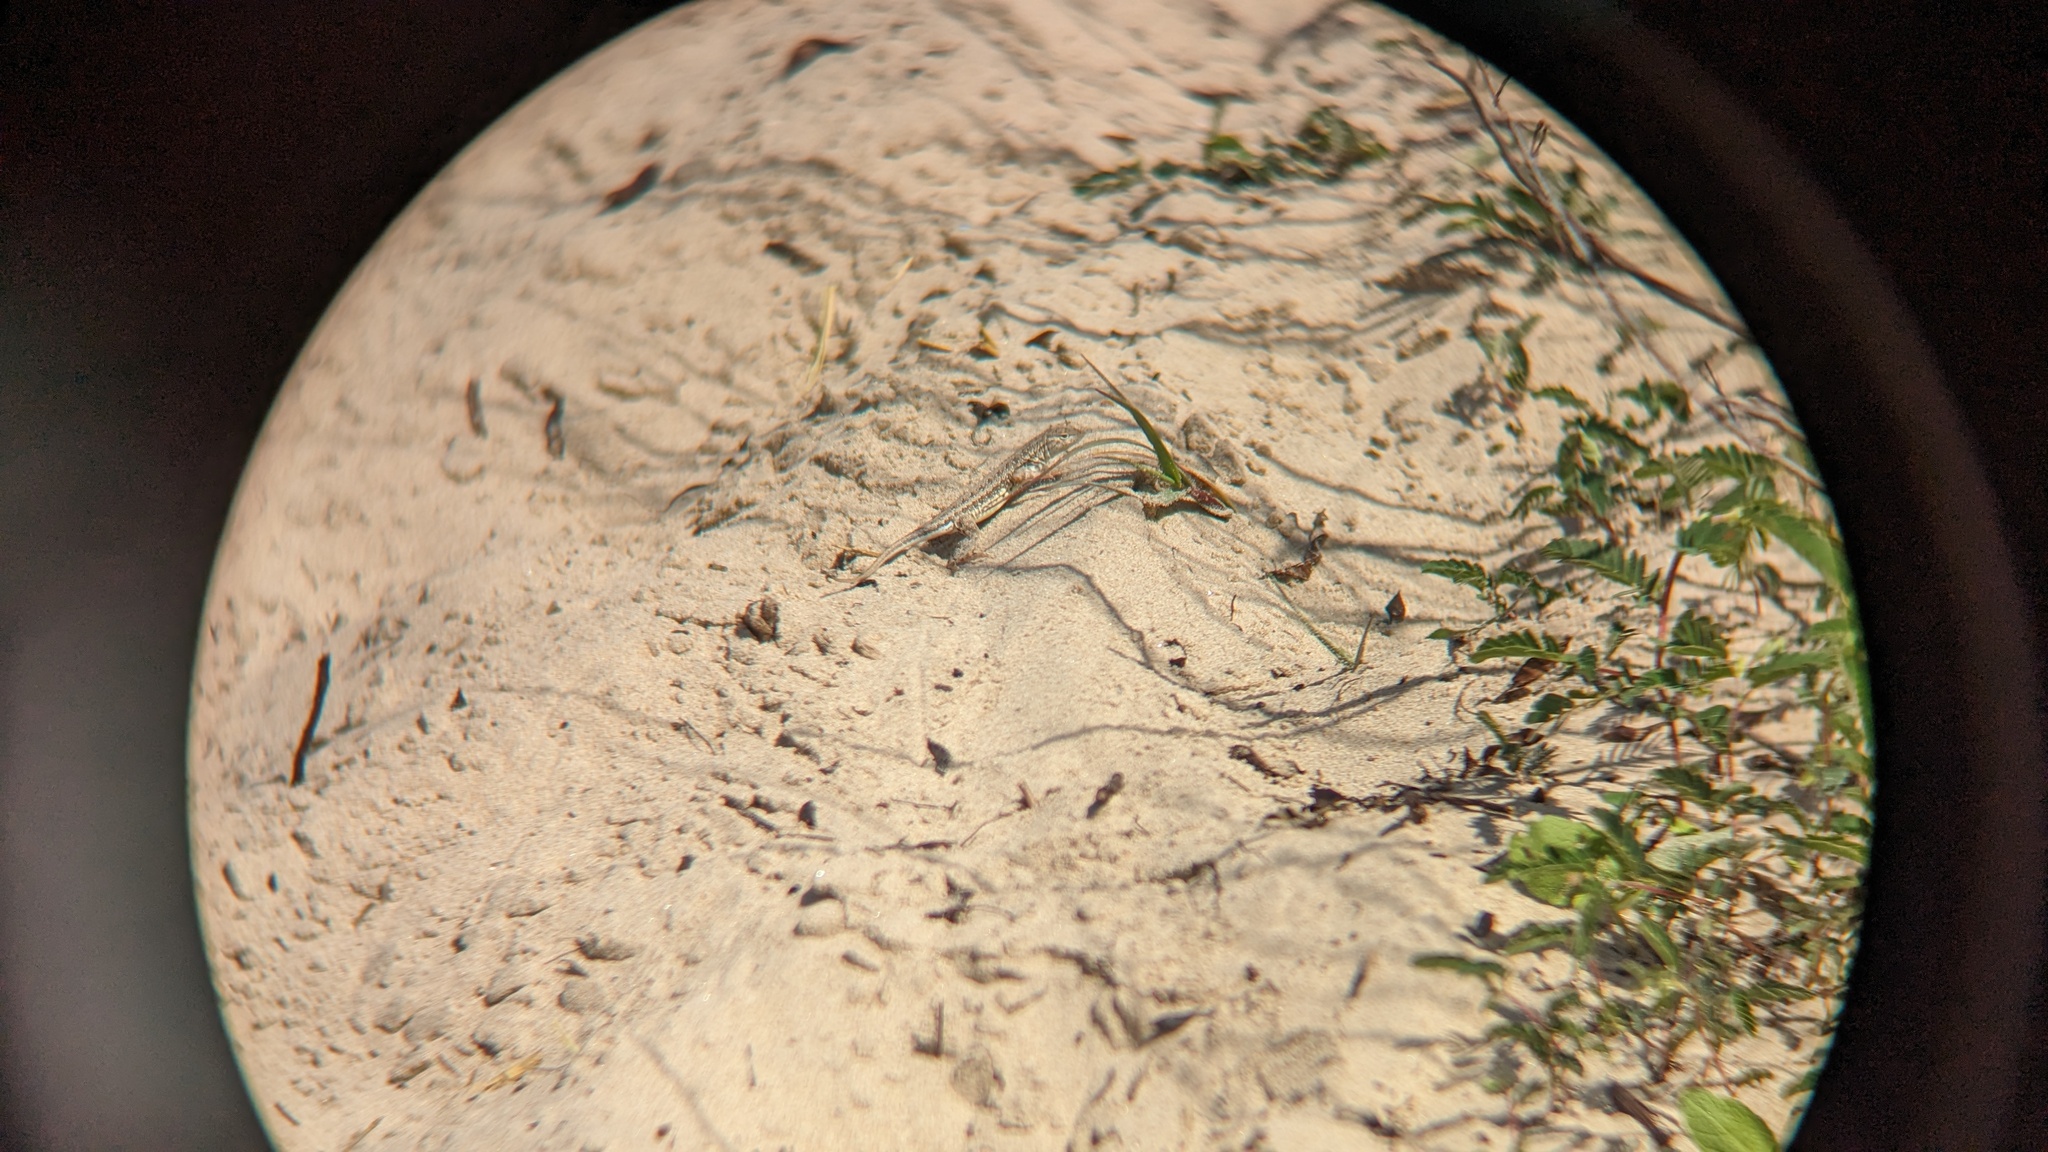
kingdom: Animalia
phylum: Chordata
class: Squamata
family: Phrynosomatidae
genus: Holbrookia
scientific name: Holbrookia propinqua
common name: Keeled earless lizard
